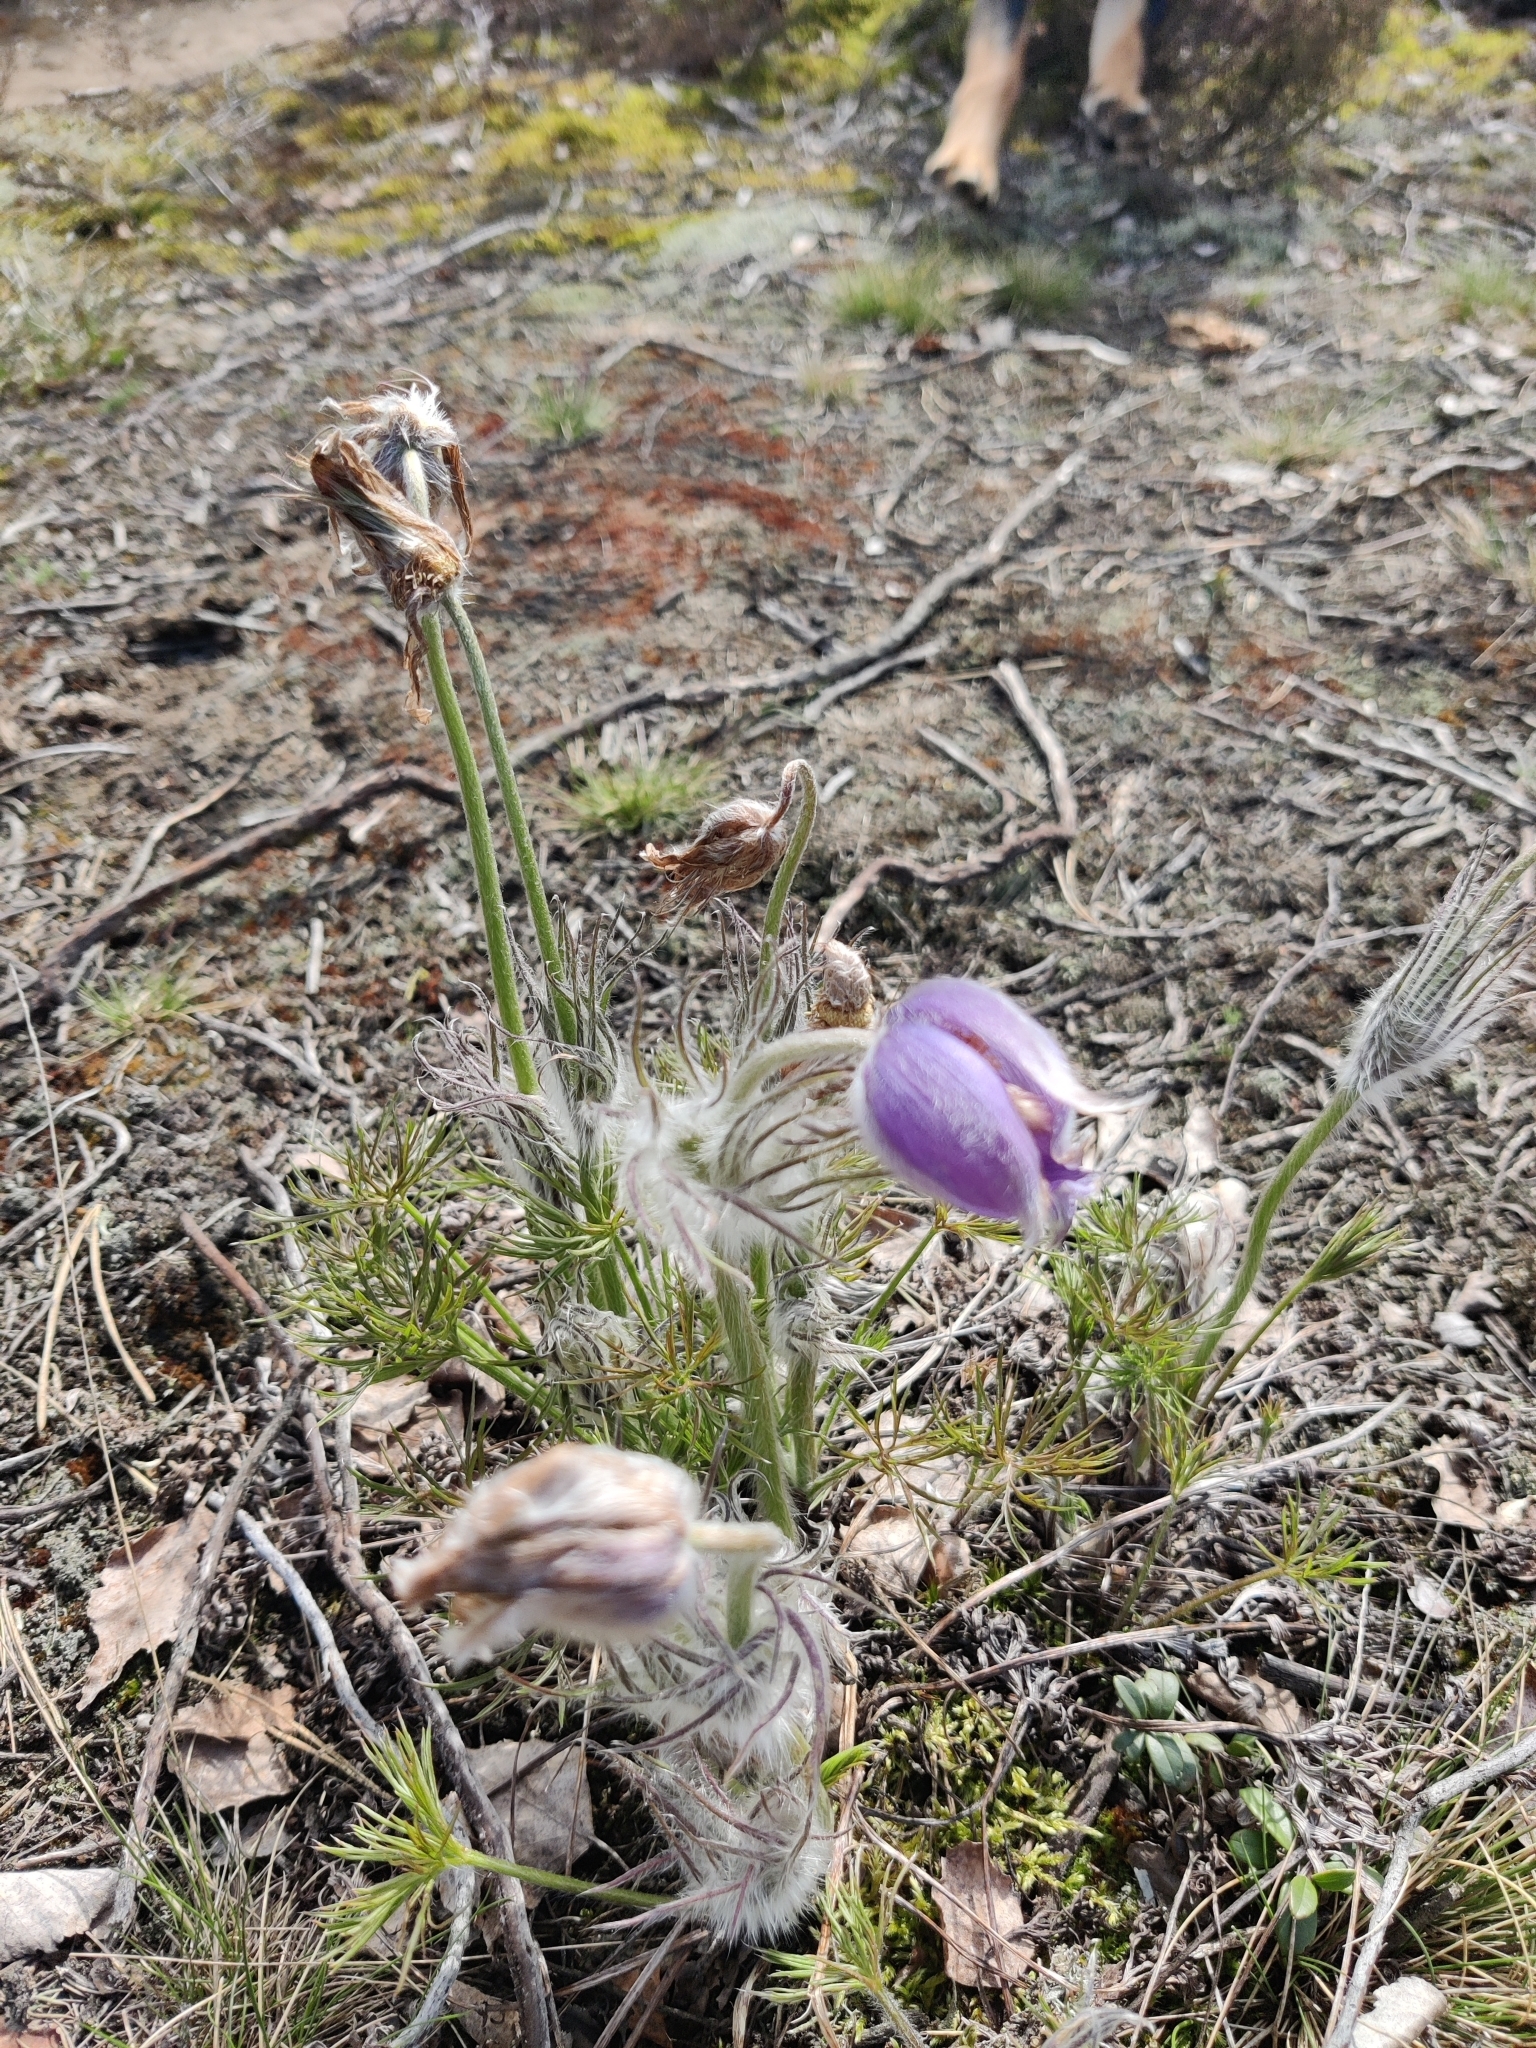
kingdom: Plantae
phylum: Tracheophyta
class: Magnoliopsida
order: Ranunculales
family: Ranunculaceae
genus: Pulsatilla
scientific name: Pulsatilla patens
